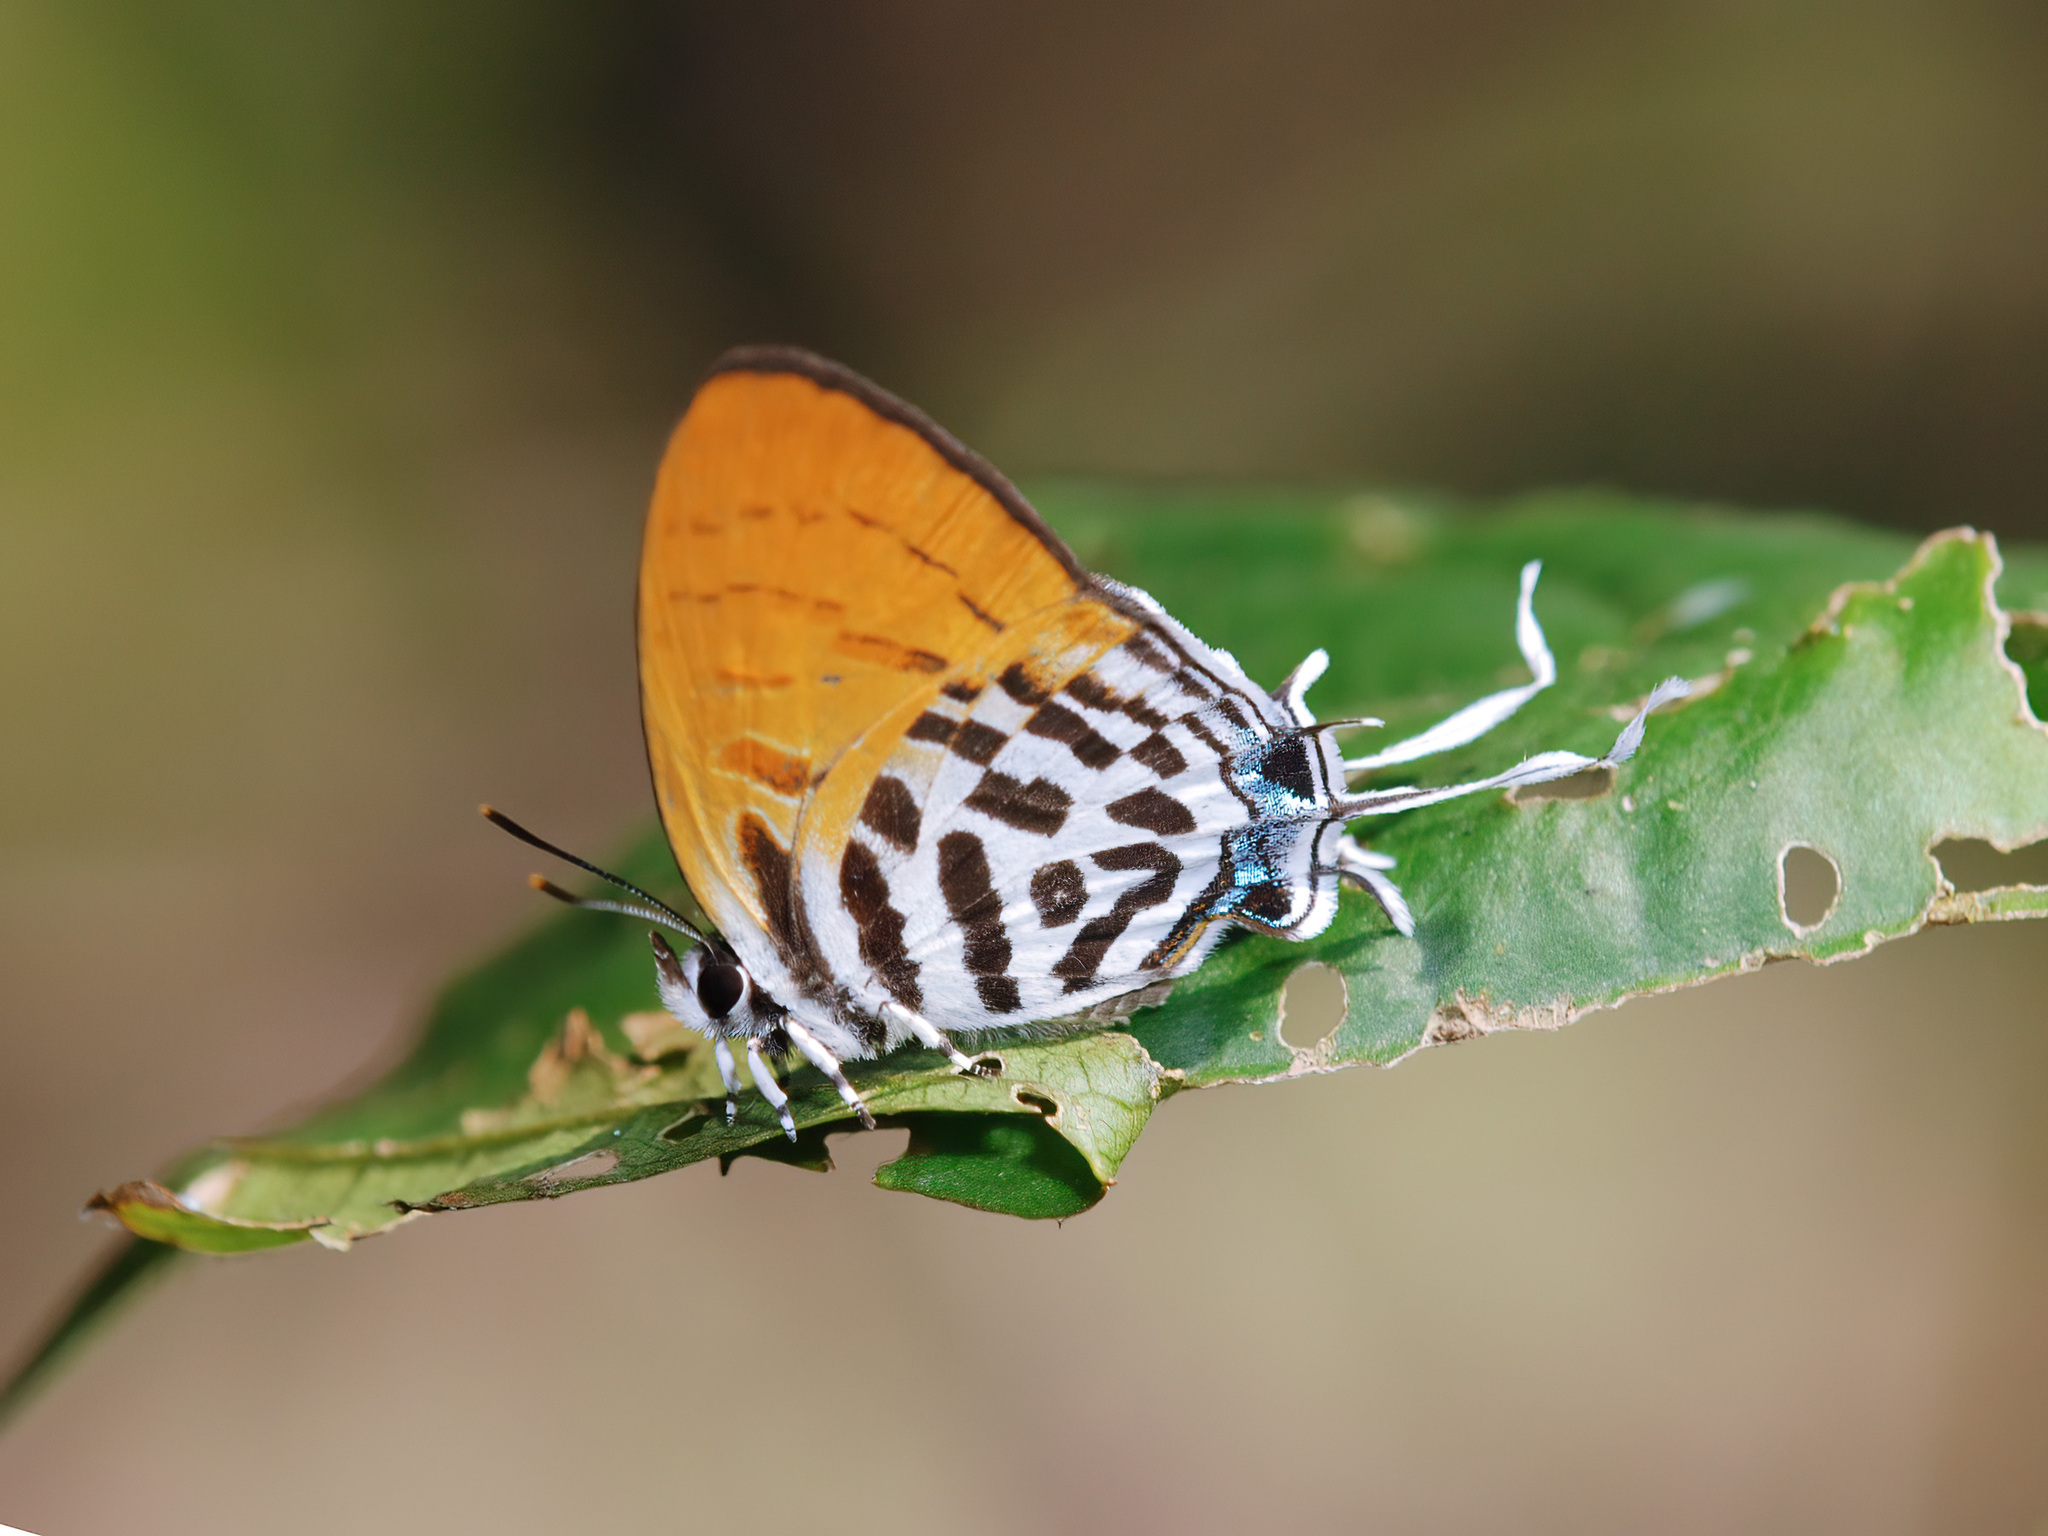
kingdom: Animalia
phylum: Arthropoda
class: Insecta
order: Lepidoptera
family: Lycaenidae
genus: Drupadia
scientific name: Drupadia ravindra
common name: Common posy
